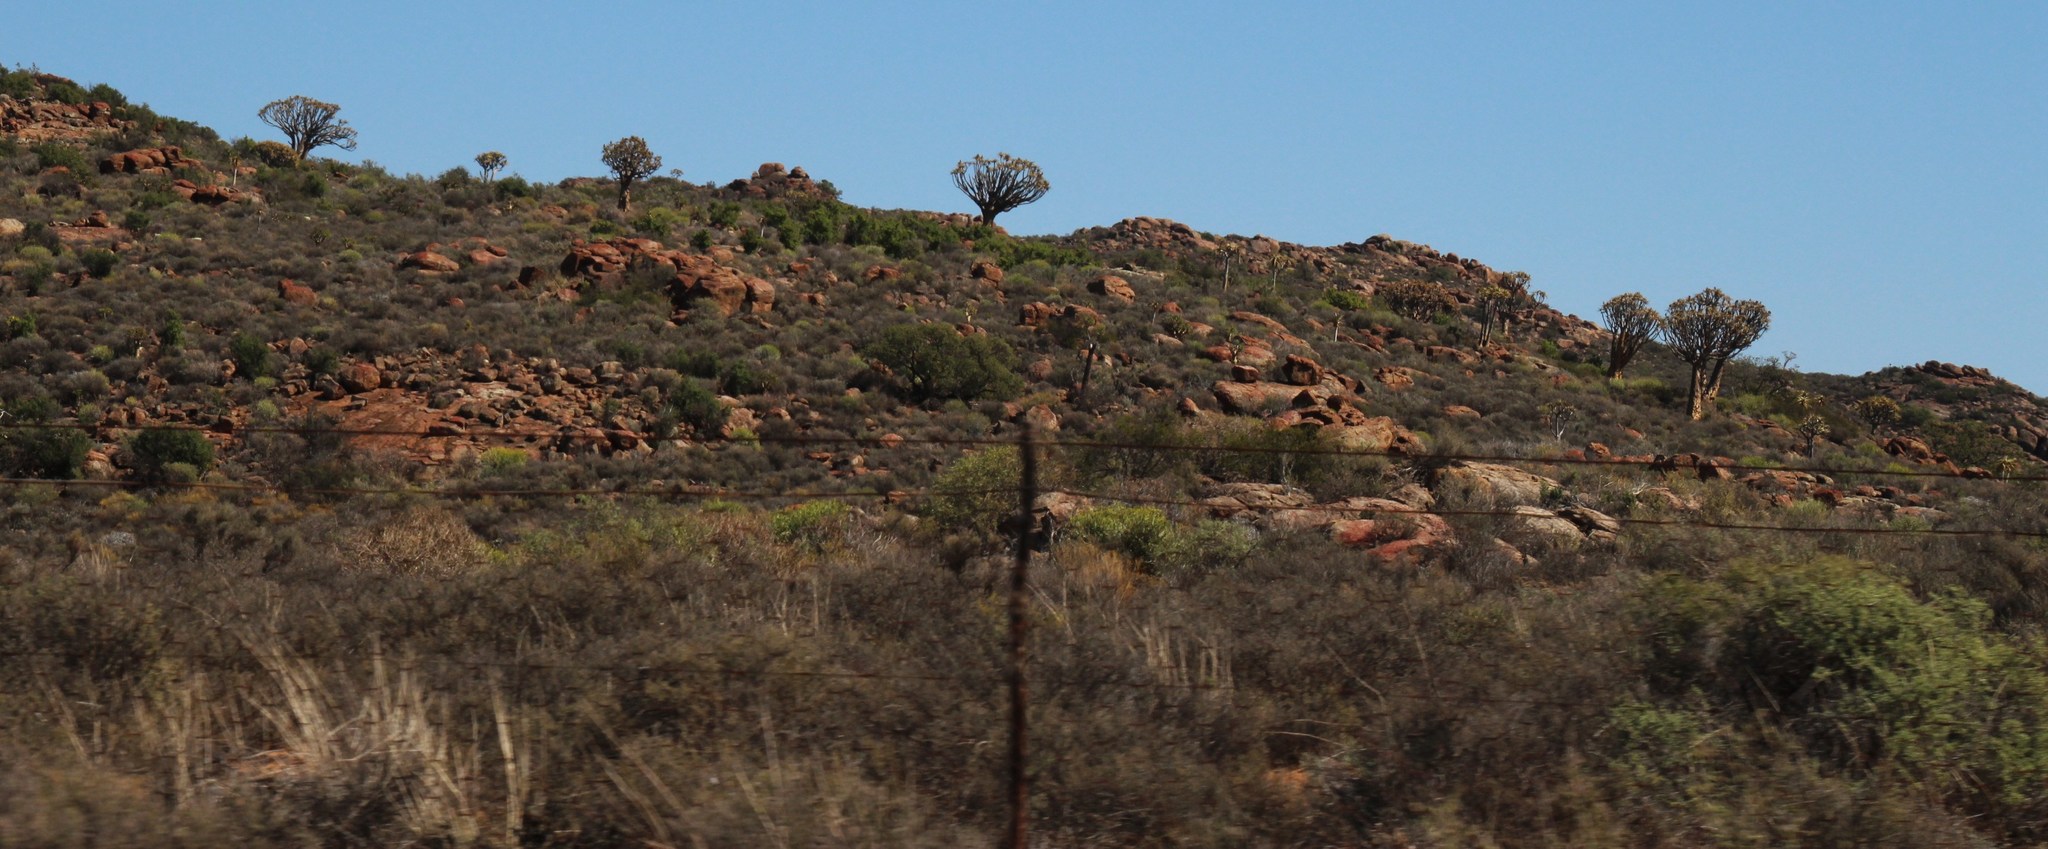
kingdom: Plantae
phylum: Tracheophyta
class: Liliopsida
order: Asparagales
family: Asphodelaceae
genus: Aloidendron
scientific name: Aloidendron dichotomum
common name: Quiver tree
